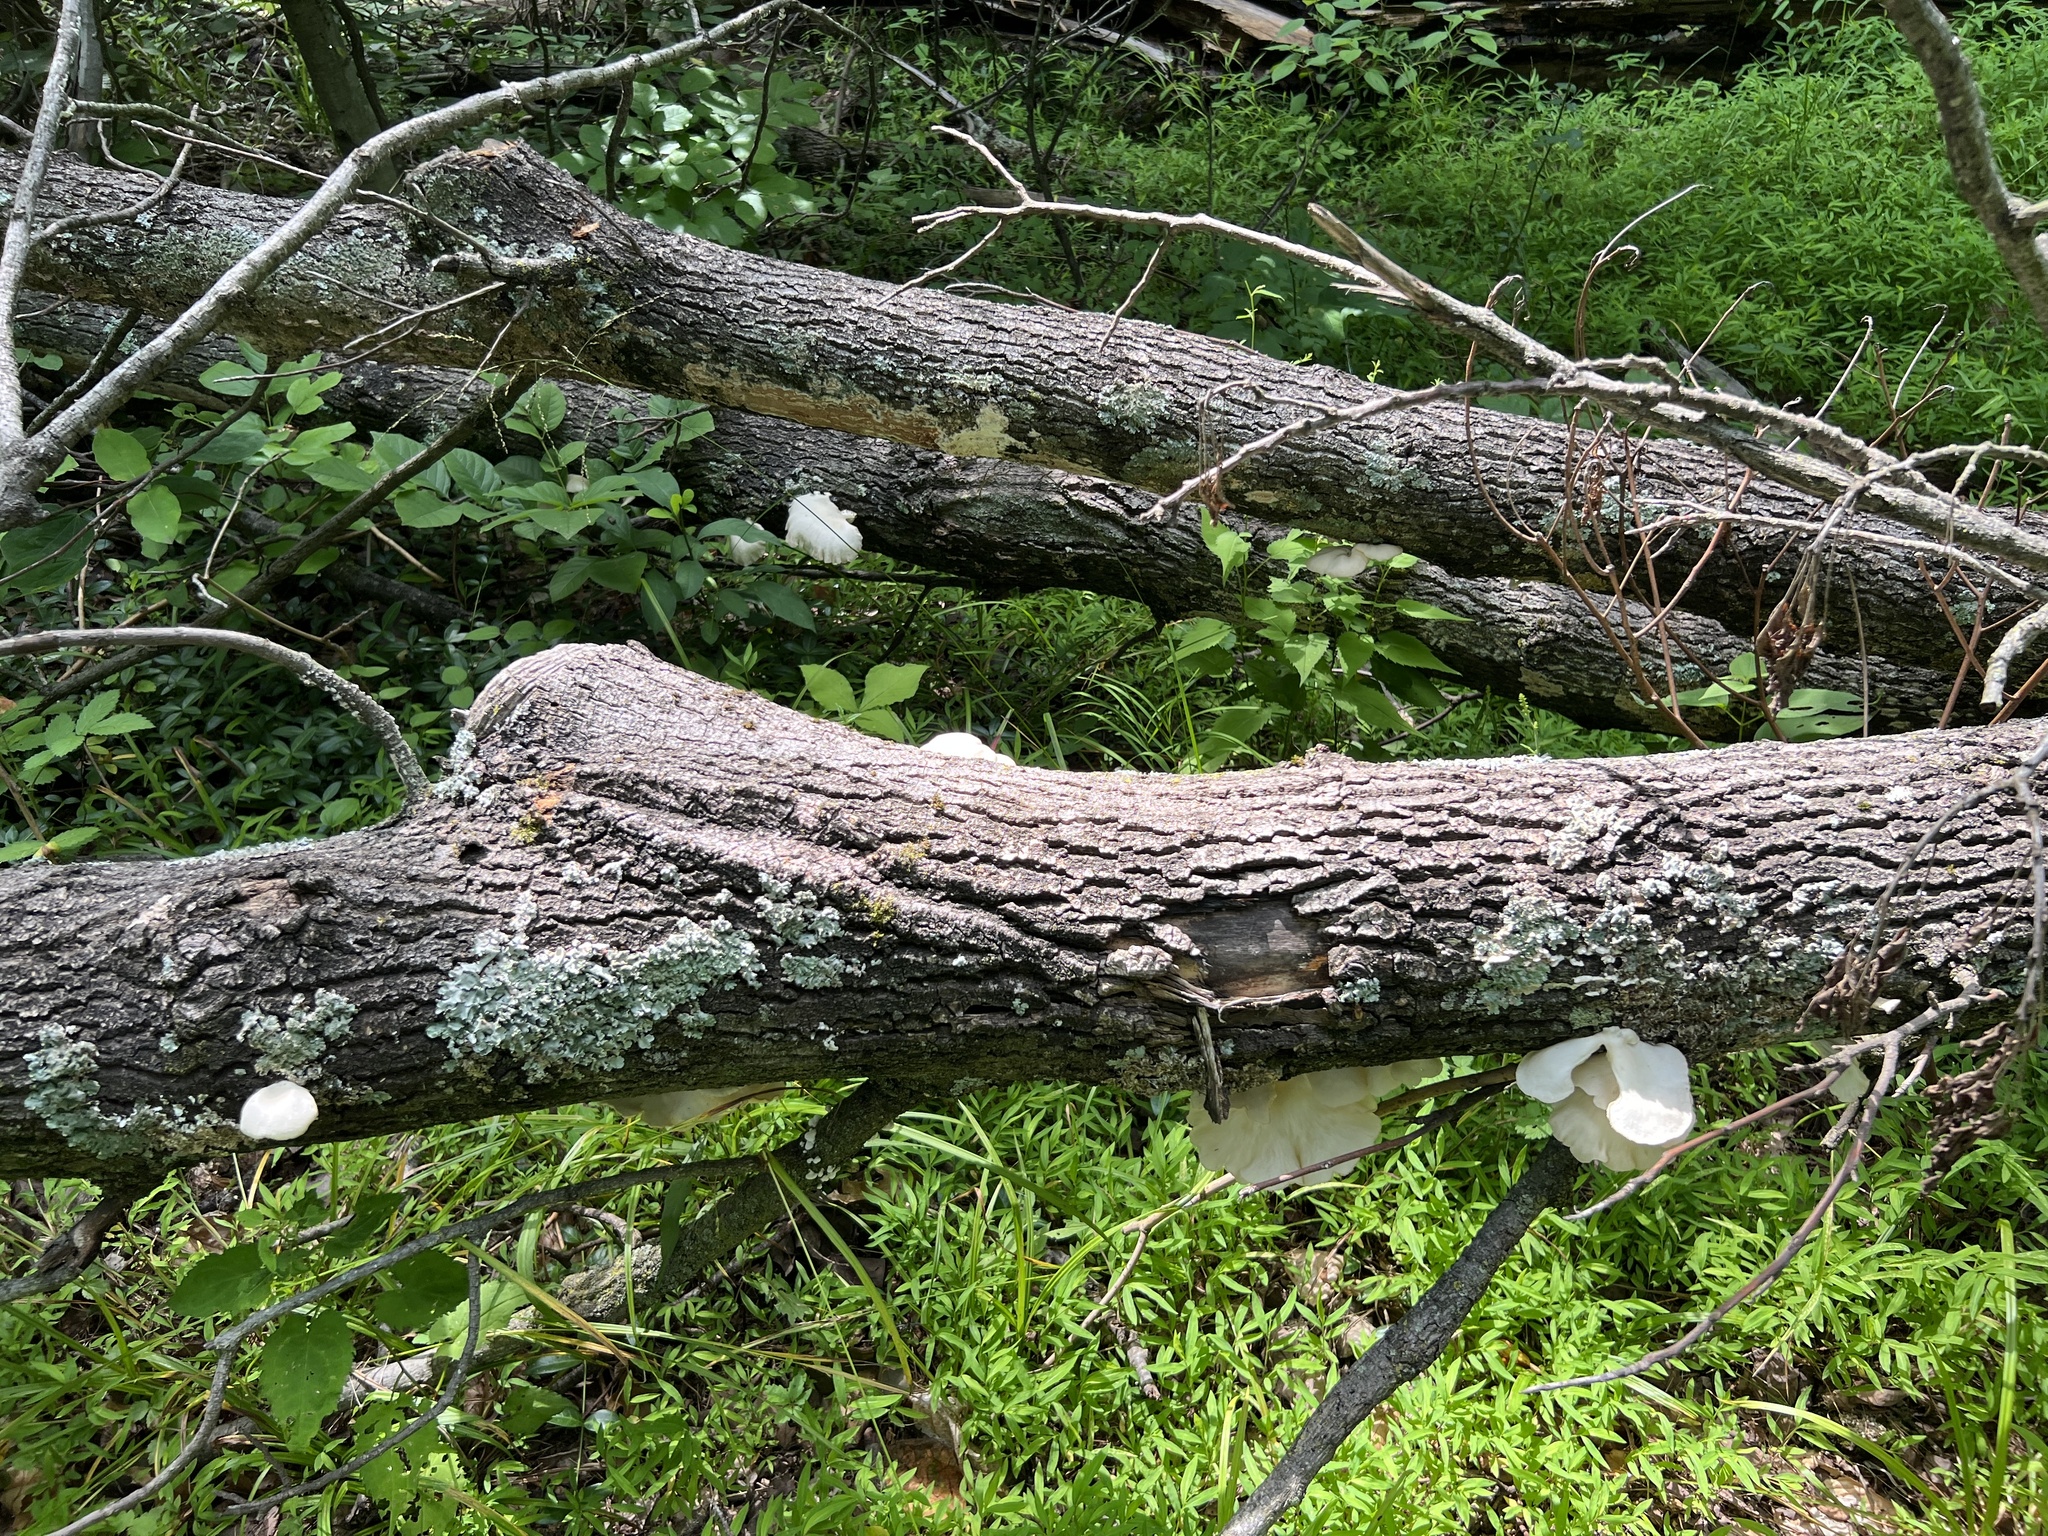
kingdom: Fungi
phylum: Basidiomycota
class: Agaricomycetes
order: Agaricales
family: Pleurotaceae
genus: Pleurotus
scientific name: Pleurotus pulmonarius
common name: Pale oyster
